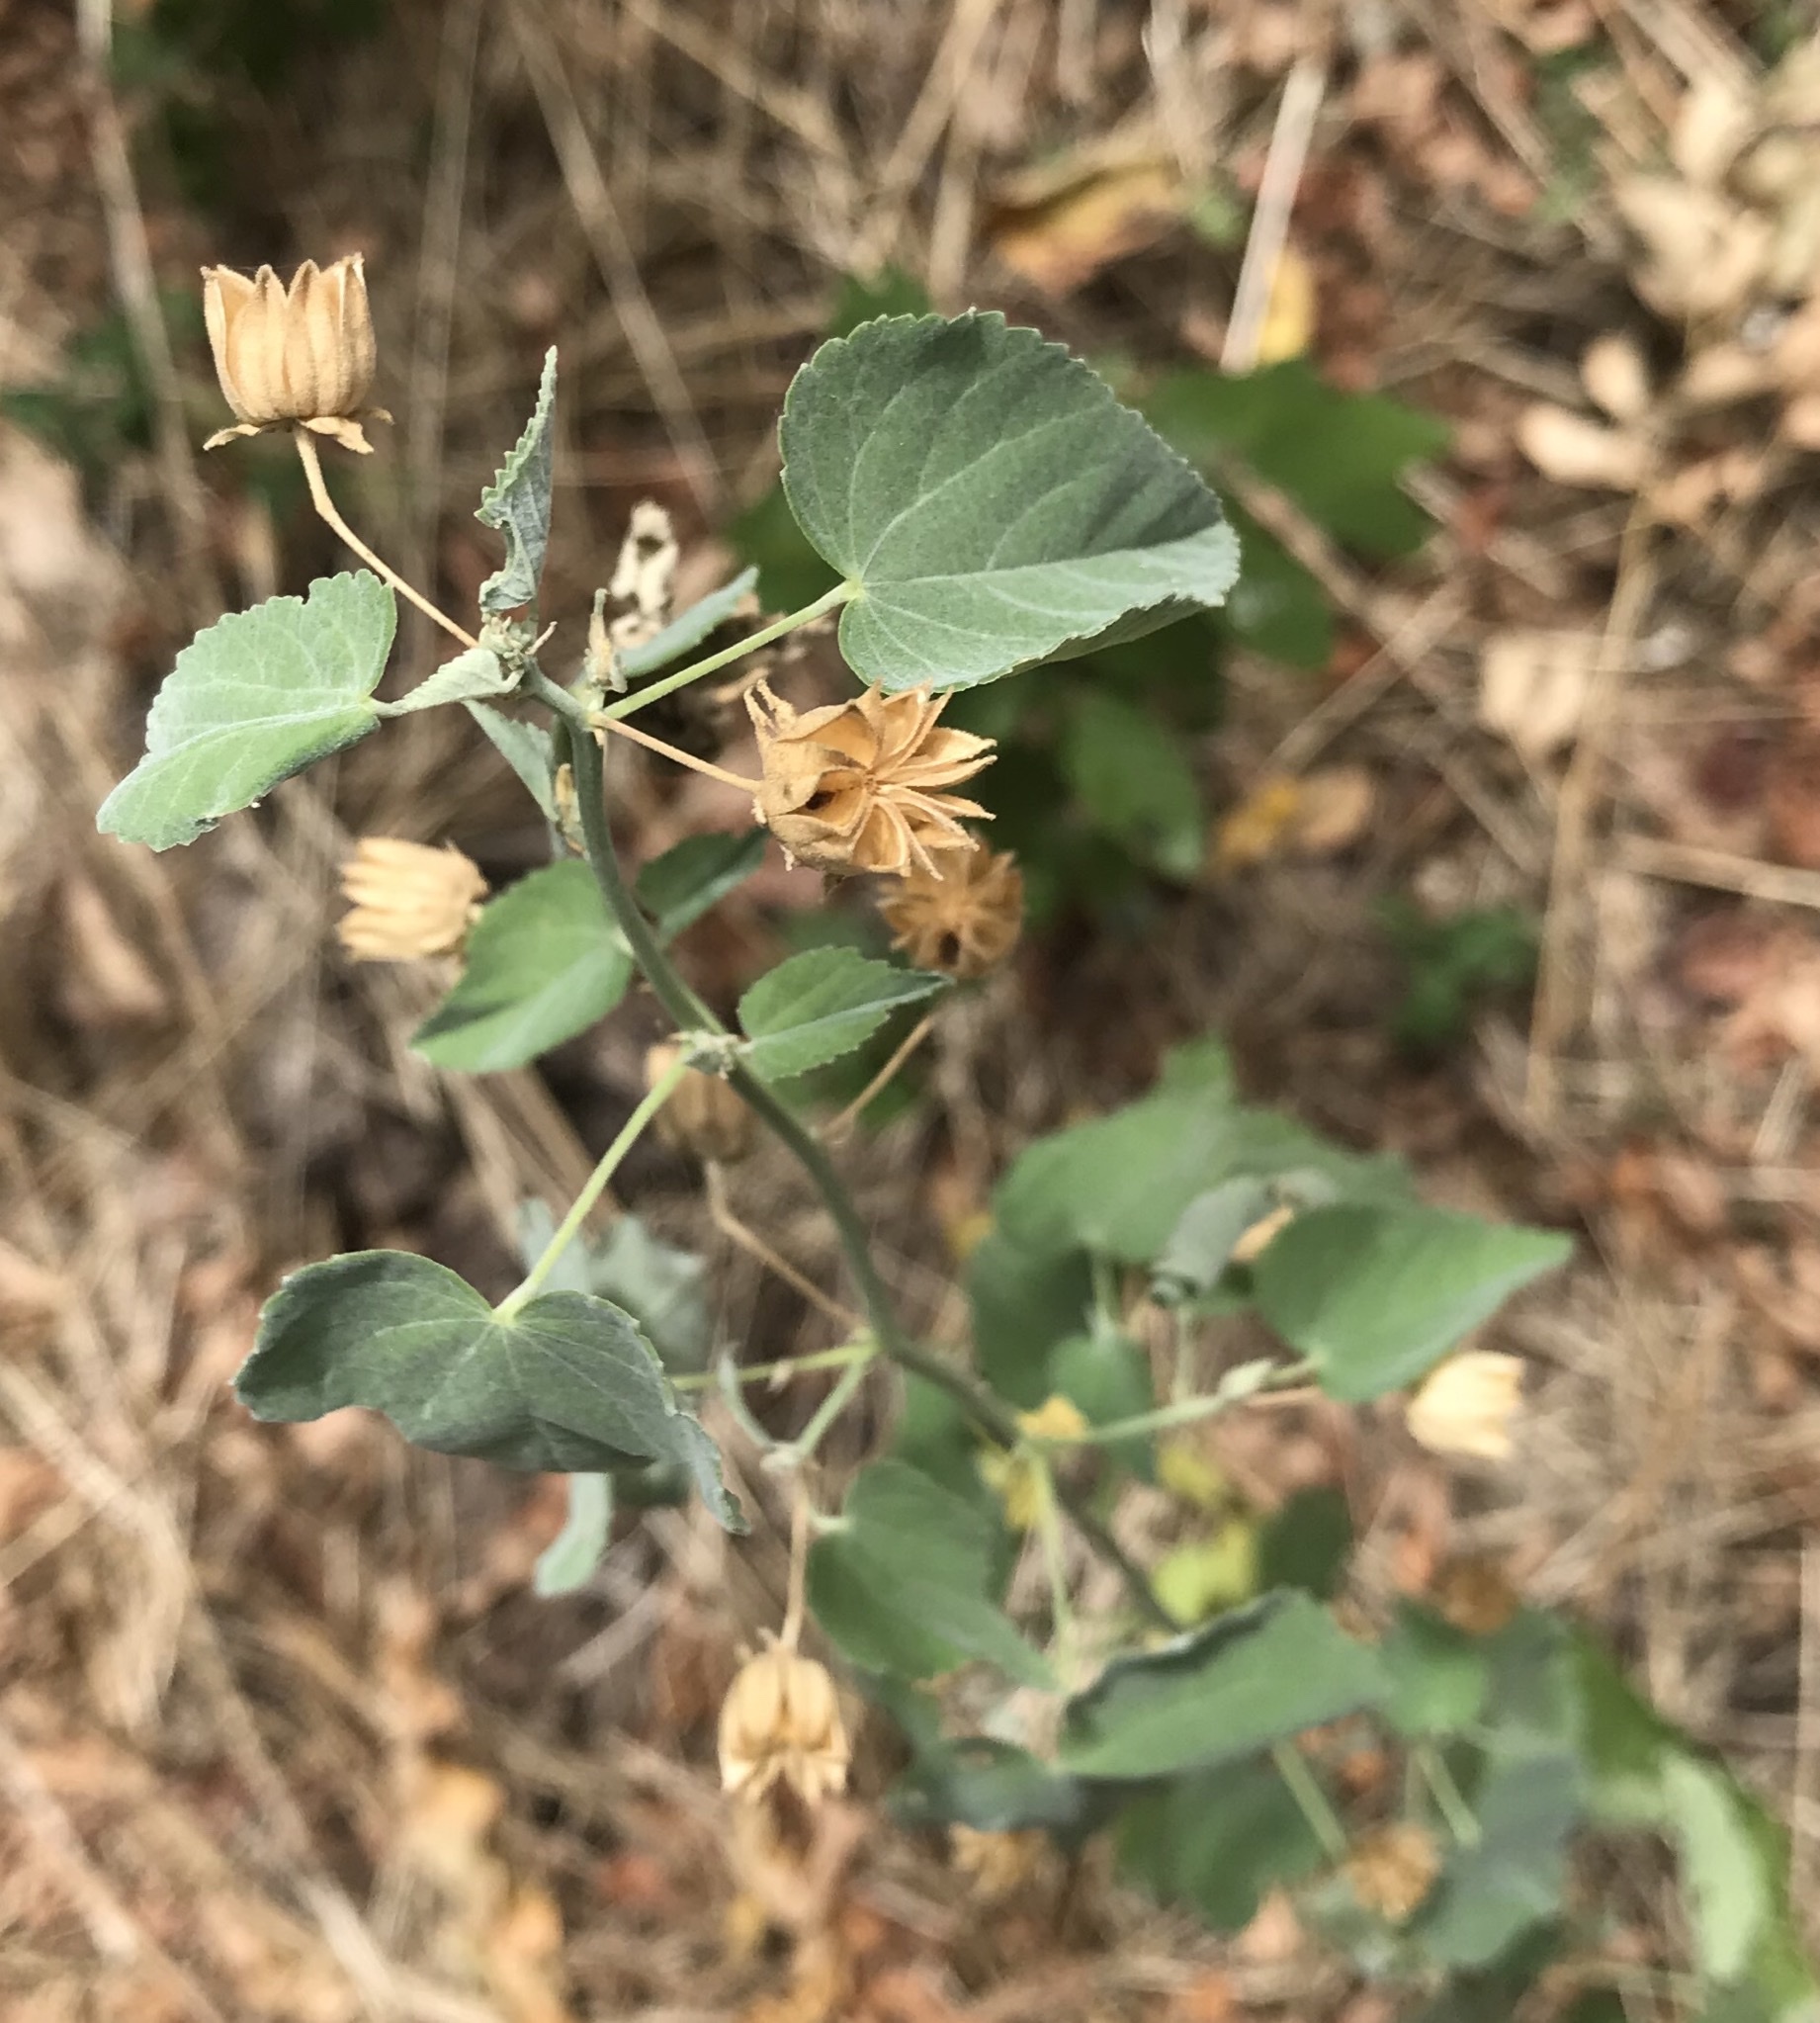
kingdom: Plantae
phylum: Tracheophyta
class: Magnoliopsida
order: Malvales
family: Malvaceae
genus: Abutilon
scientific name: Abutilon fruticosum
